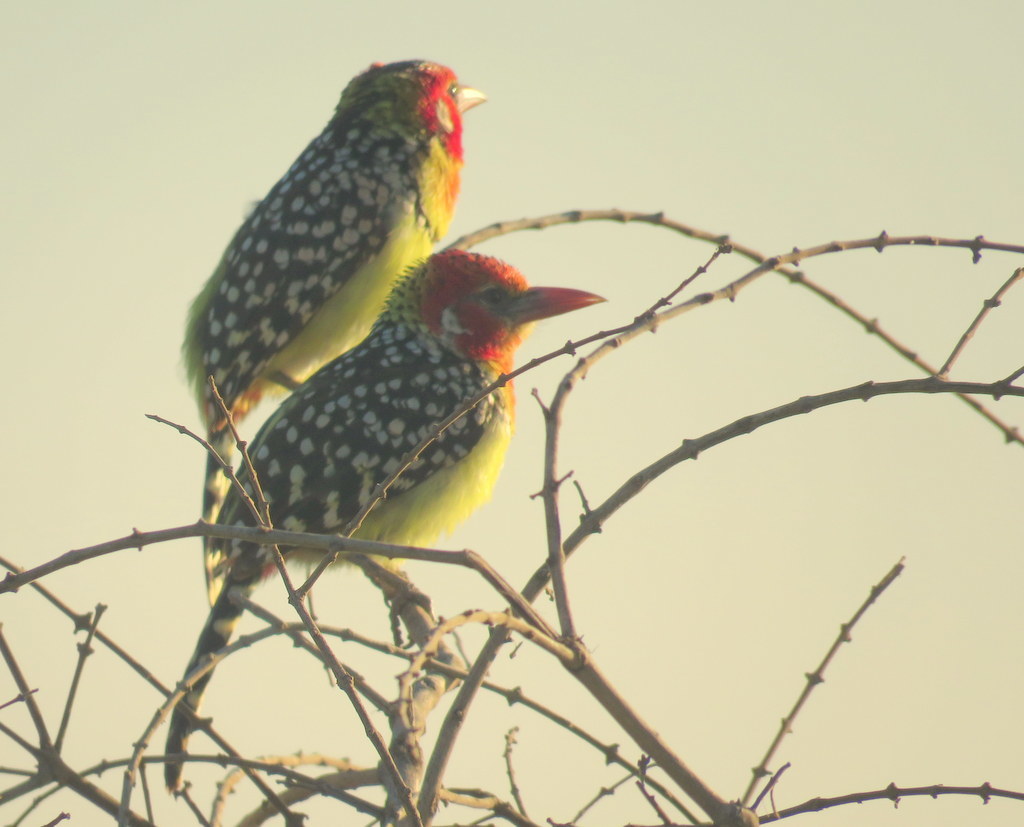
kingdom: Animalia
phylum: Chordata
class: Aves
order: Piciformes
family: Lybiidae
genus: Trachyphonus
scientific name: Trachyphonus erythrocephalus
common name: Red-and-yellow barbet
